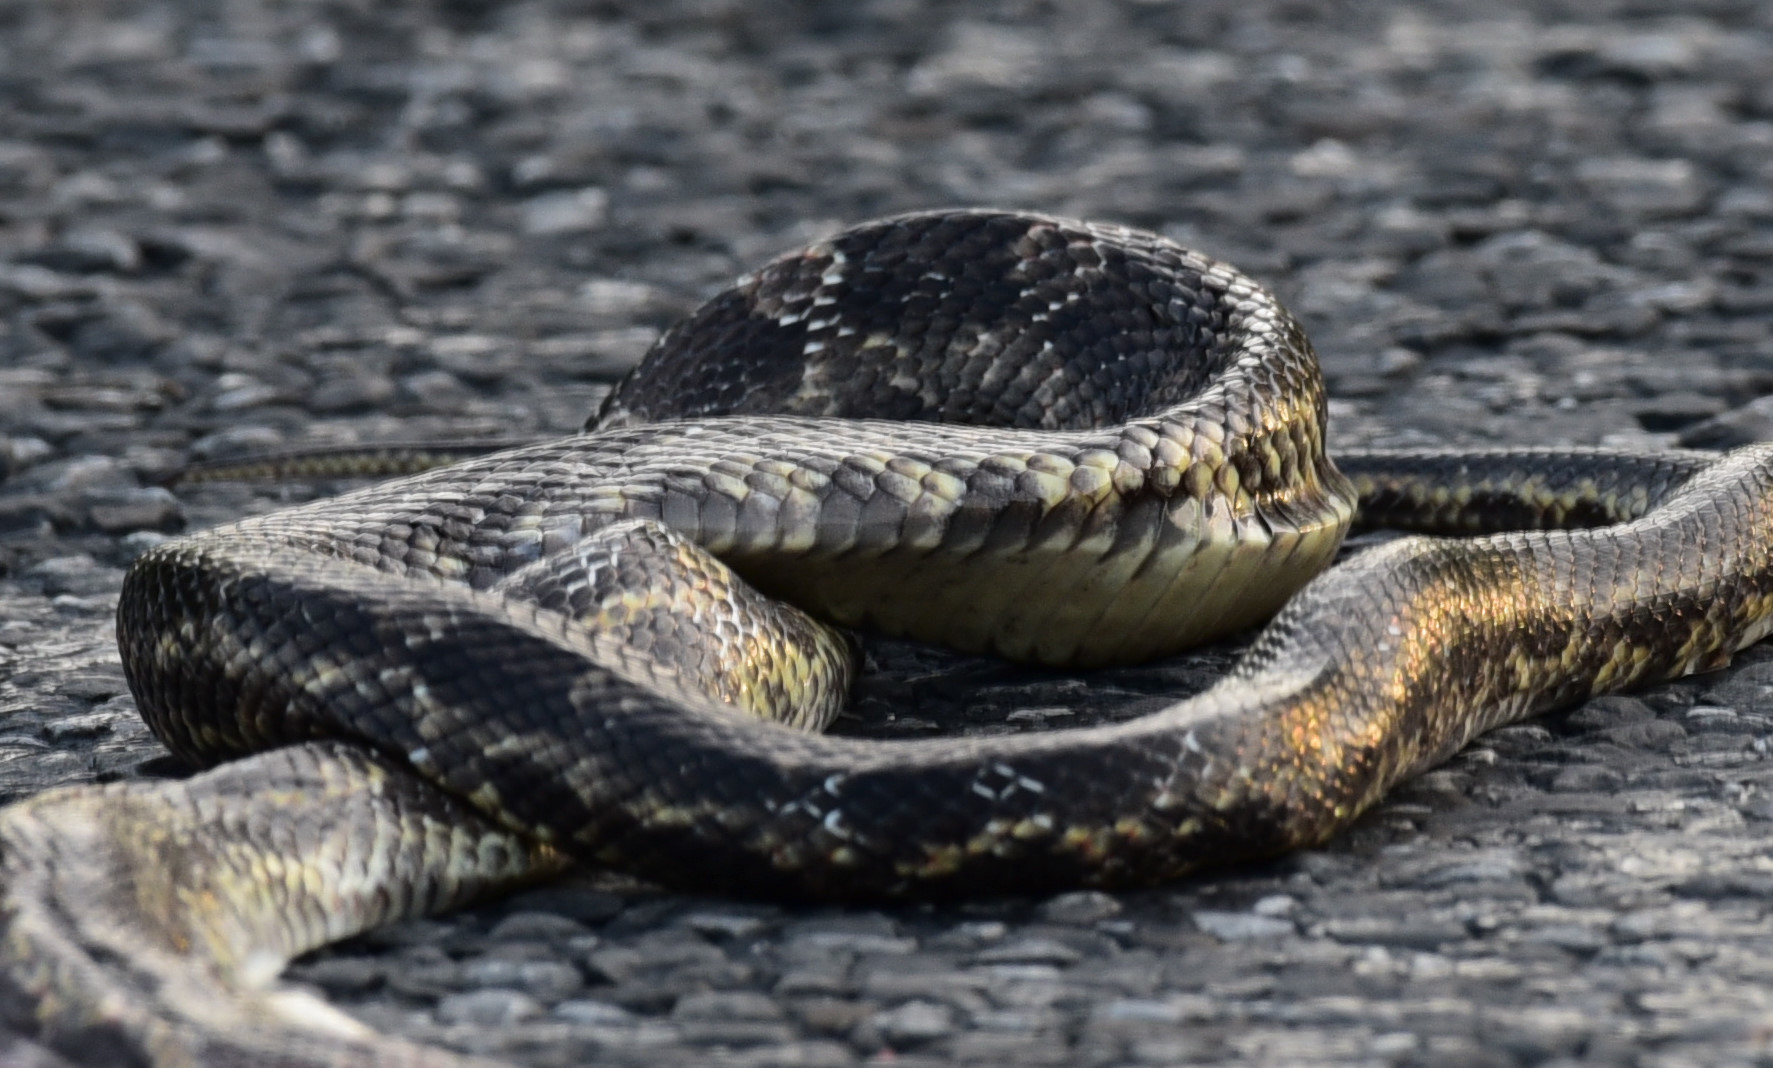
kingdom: Animalia
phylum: Chordata
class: Squamata
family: Colubridae
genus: Pantherophis
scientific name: Pantherophis obsoletus
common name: Black rat snake
